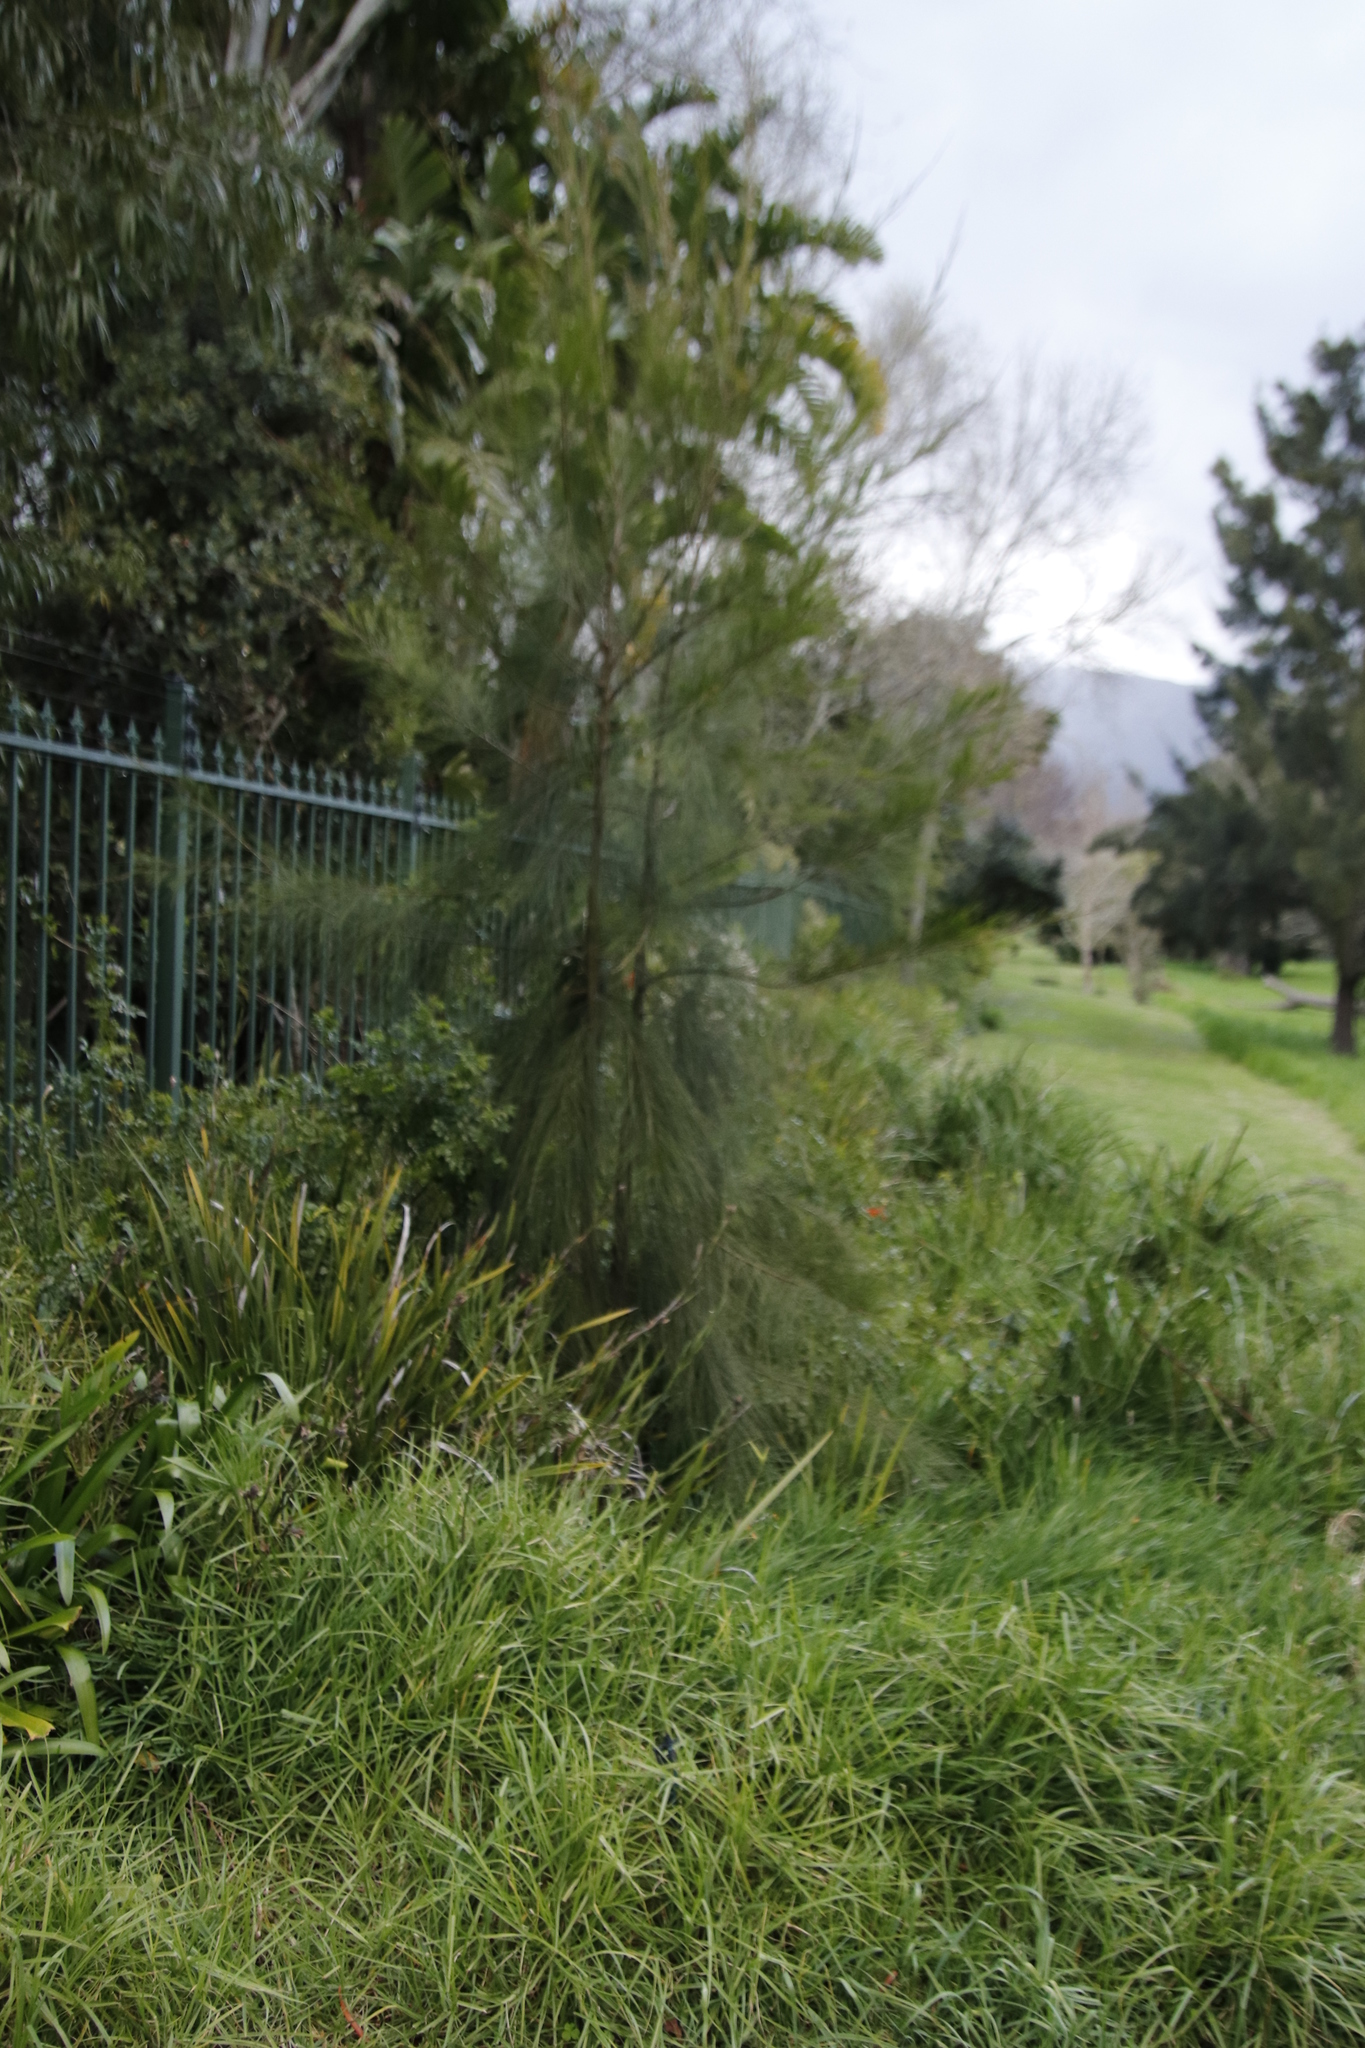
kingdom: Plantae
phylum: Tracheophyta
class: Magnoliopsida
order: Fagales
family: Casuarinaceae
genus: Casuarina
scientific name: Casuarina cunninghamiana
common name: River sheoak
